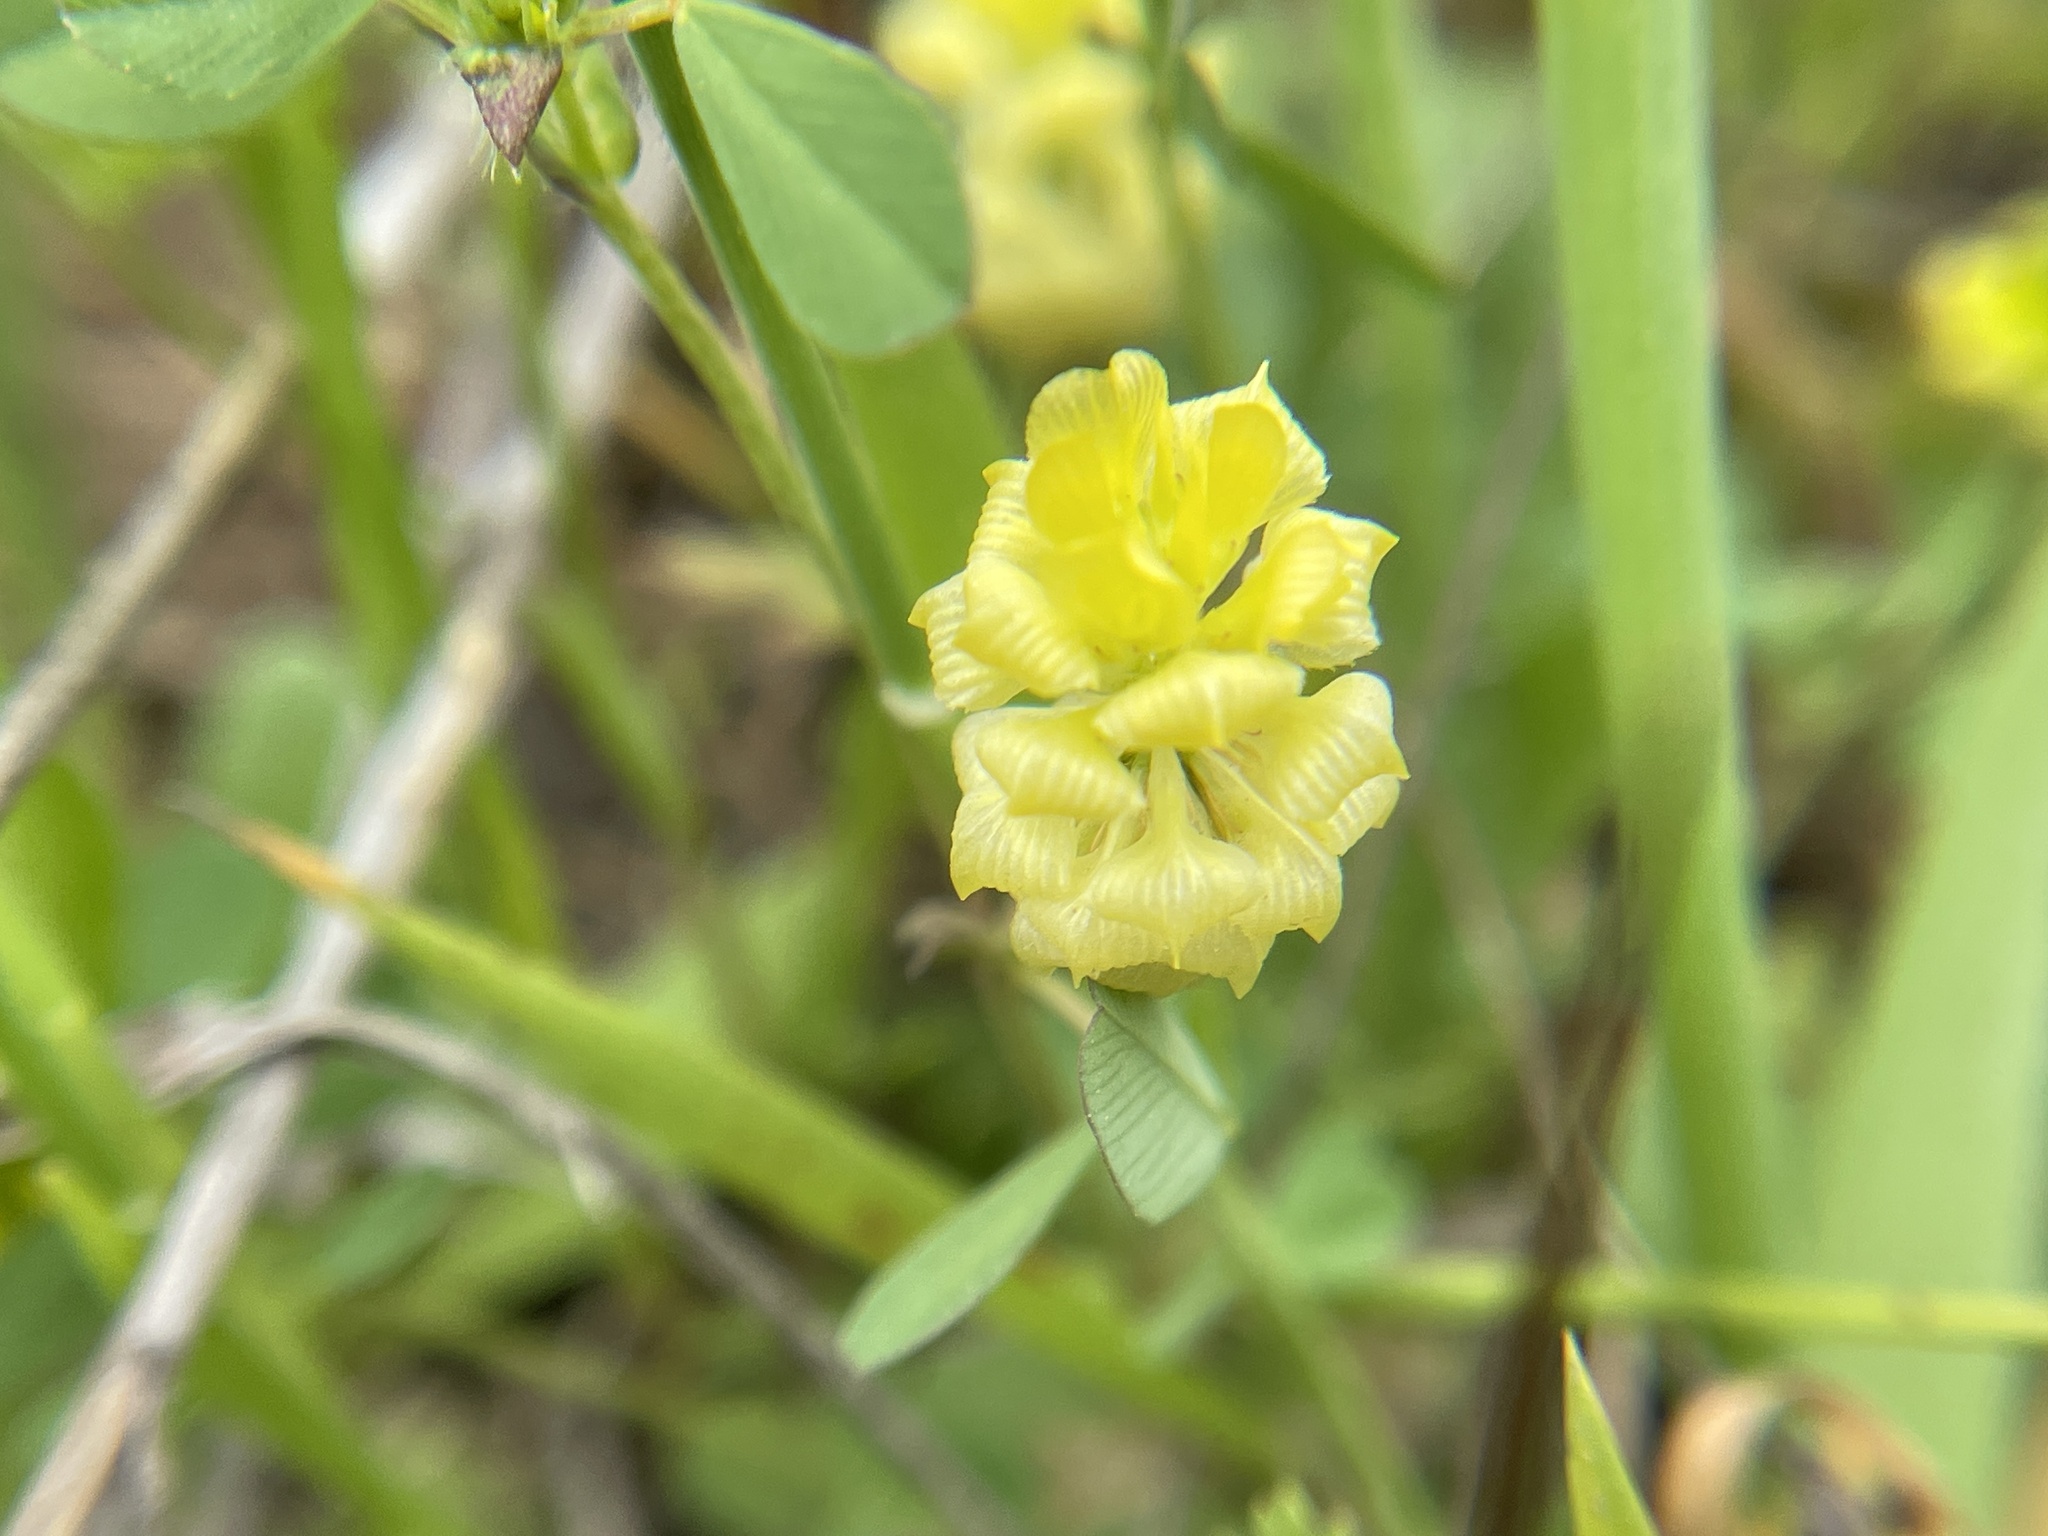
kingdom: Plantae
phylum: Tracheophyta
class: Magnoliopsida
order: Fabales
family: Fabaceae
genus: Trifolium
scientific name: Trifolium campestre
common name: Field clover
